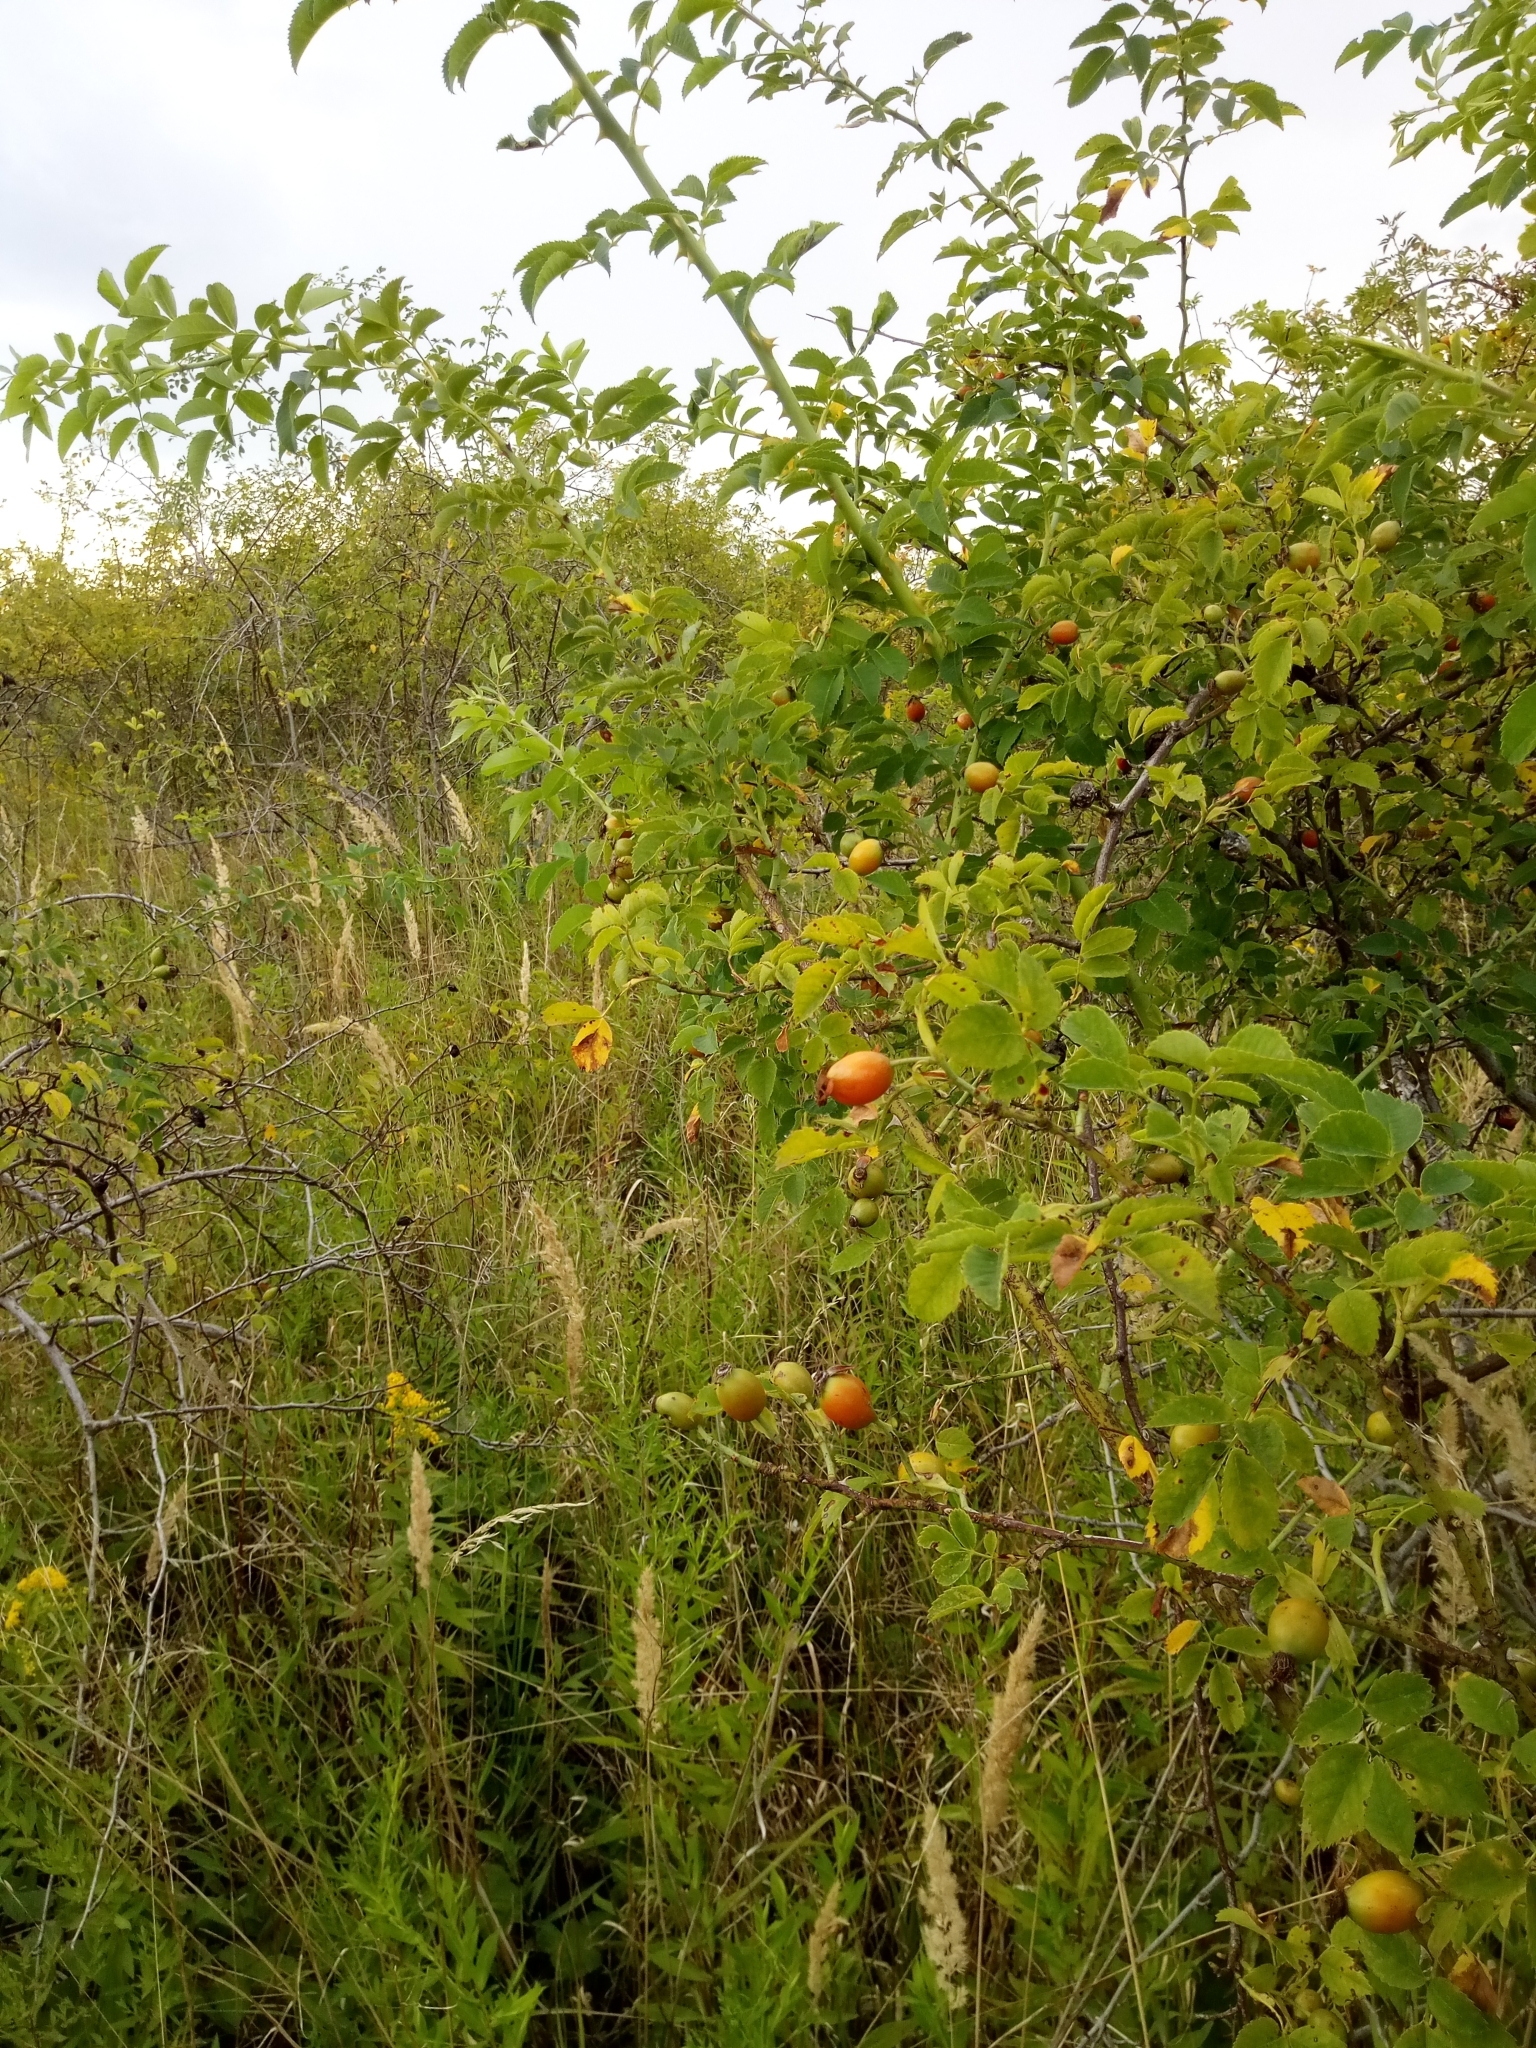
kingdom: Plantae
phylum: Tracheophyta
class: Magnoliopsida
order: Rosales
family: Rosaceae
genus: Rosa
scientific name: Rosa canina
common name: Dog rose
